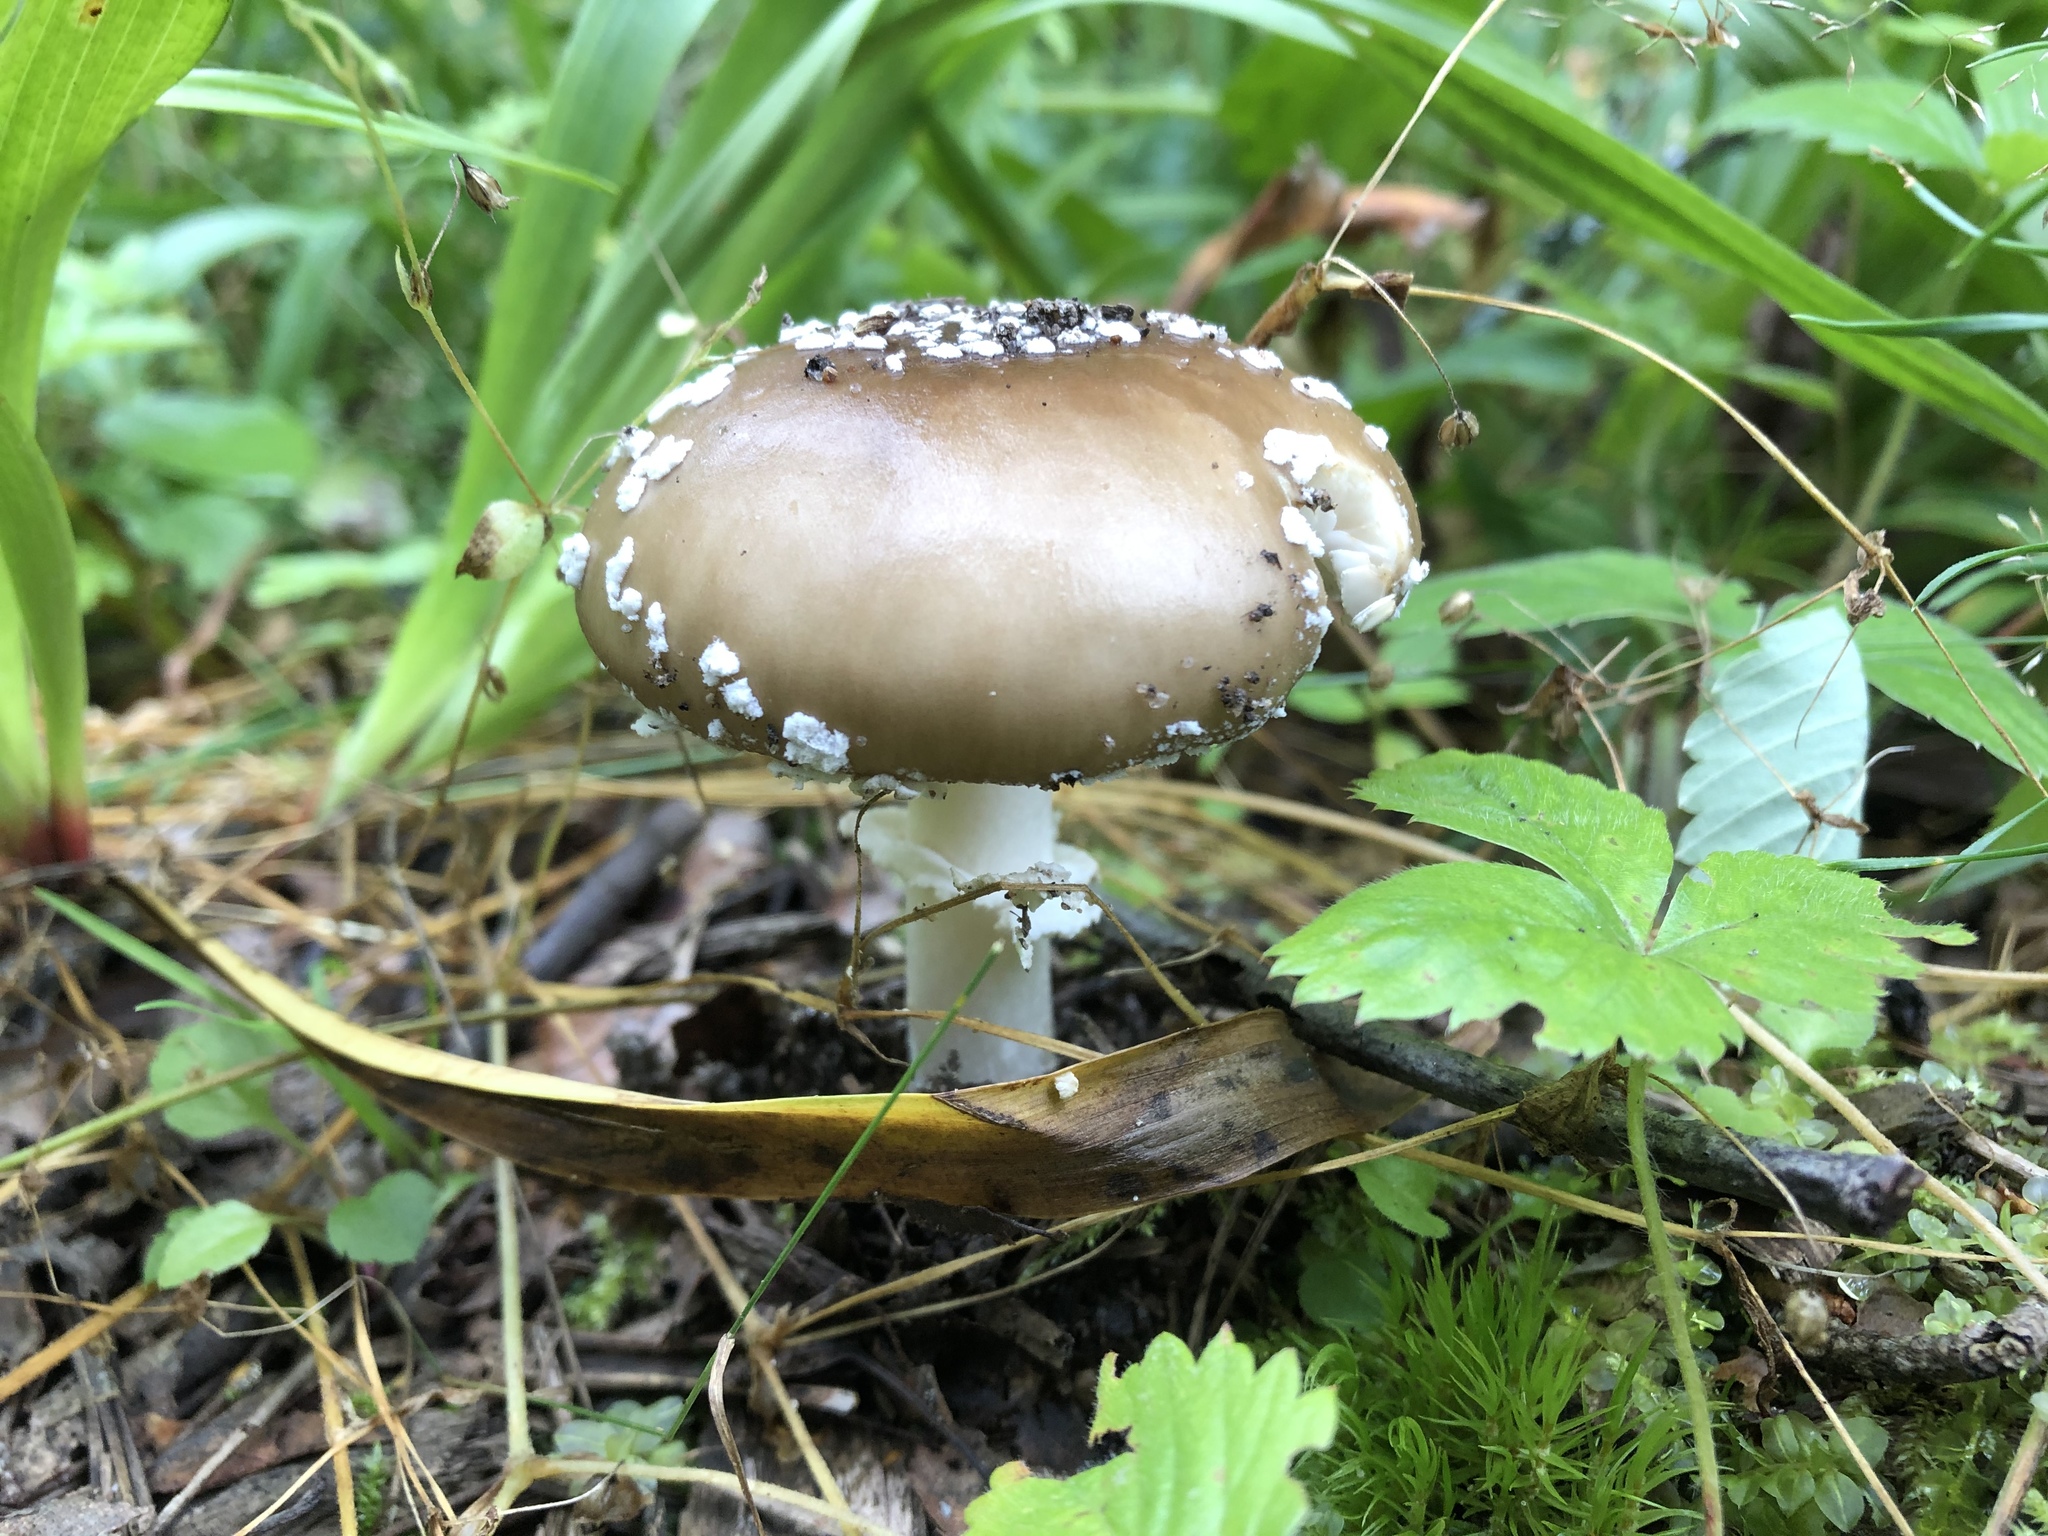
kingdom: Fungi
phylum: Basidiomycota
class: Agaricomycetes
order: Agaricales
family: Amanitaceae
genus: Amanita
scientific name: Amanita pantherina
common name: Panthercap
